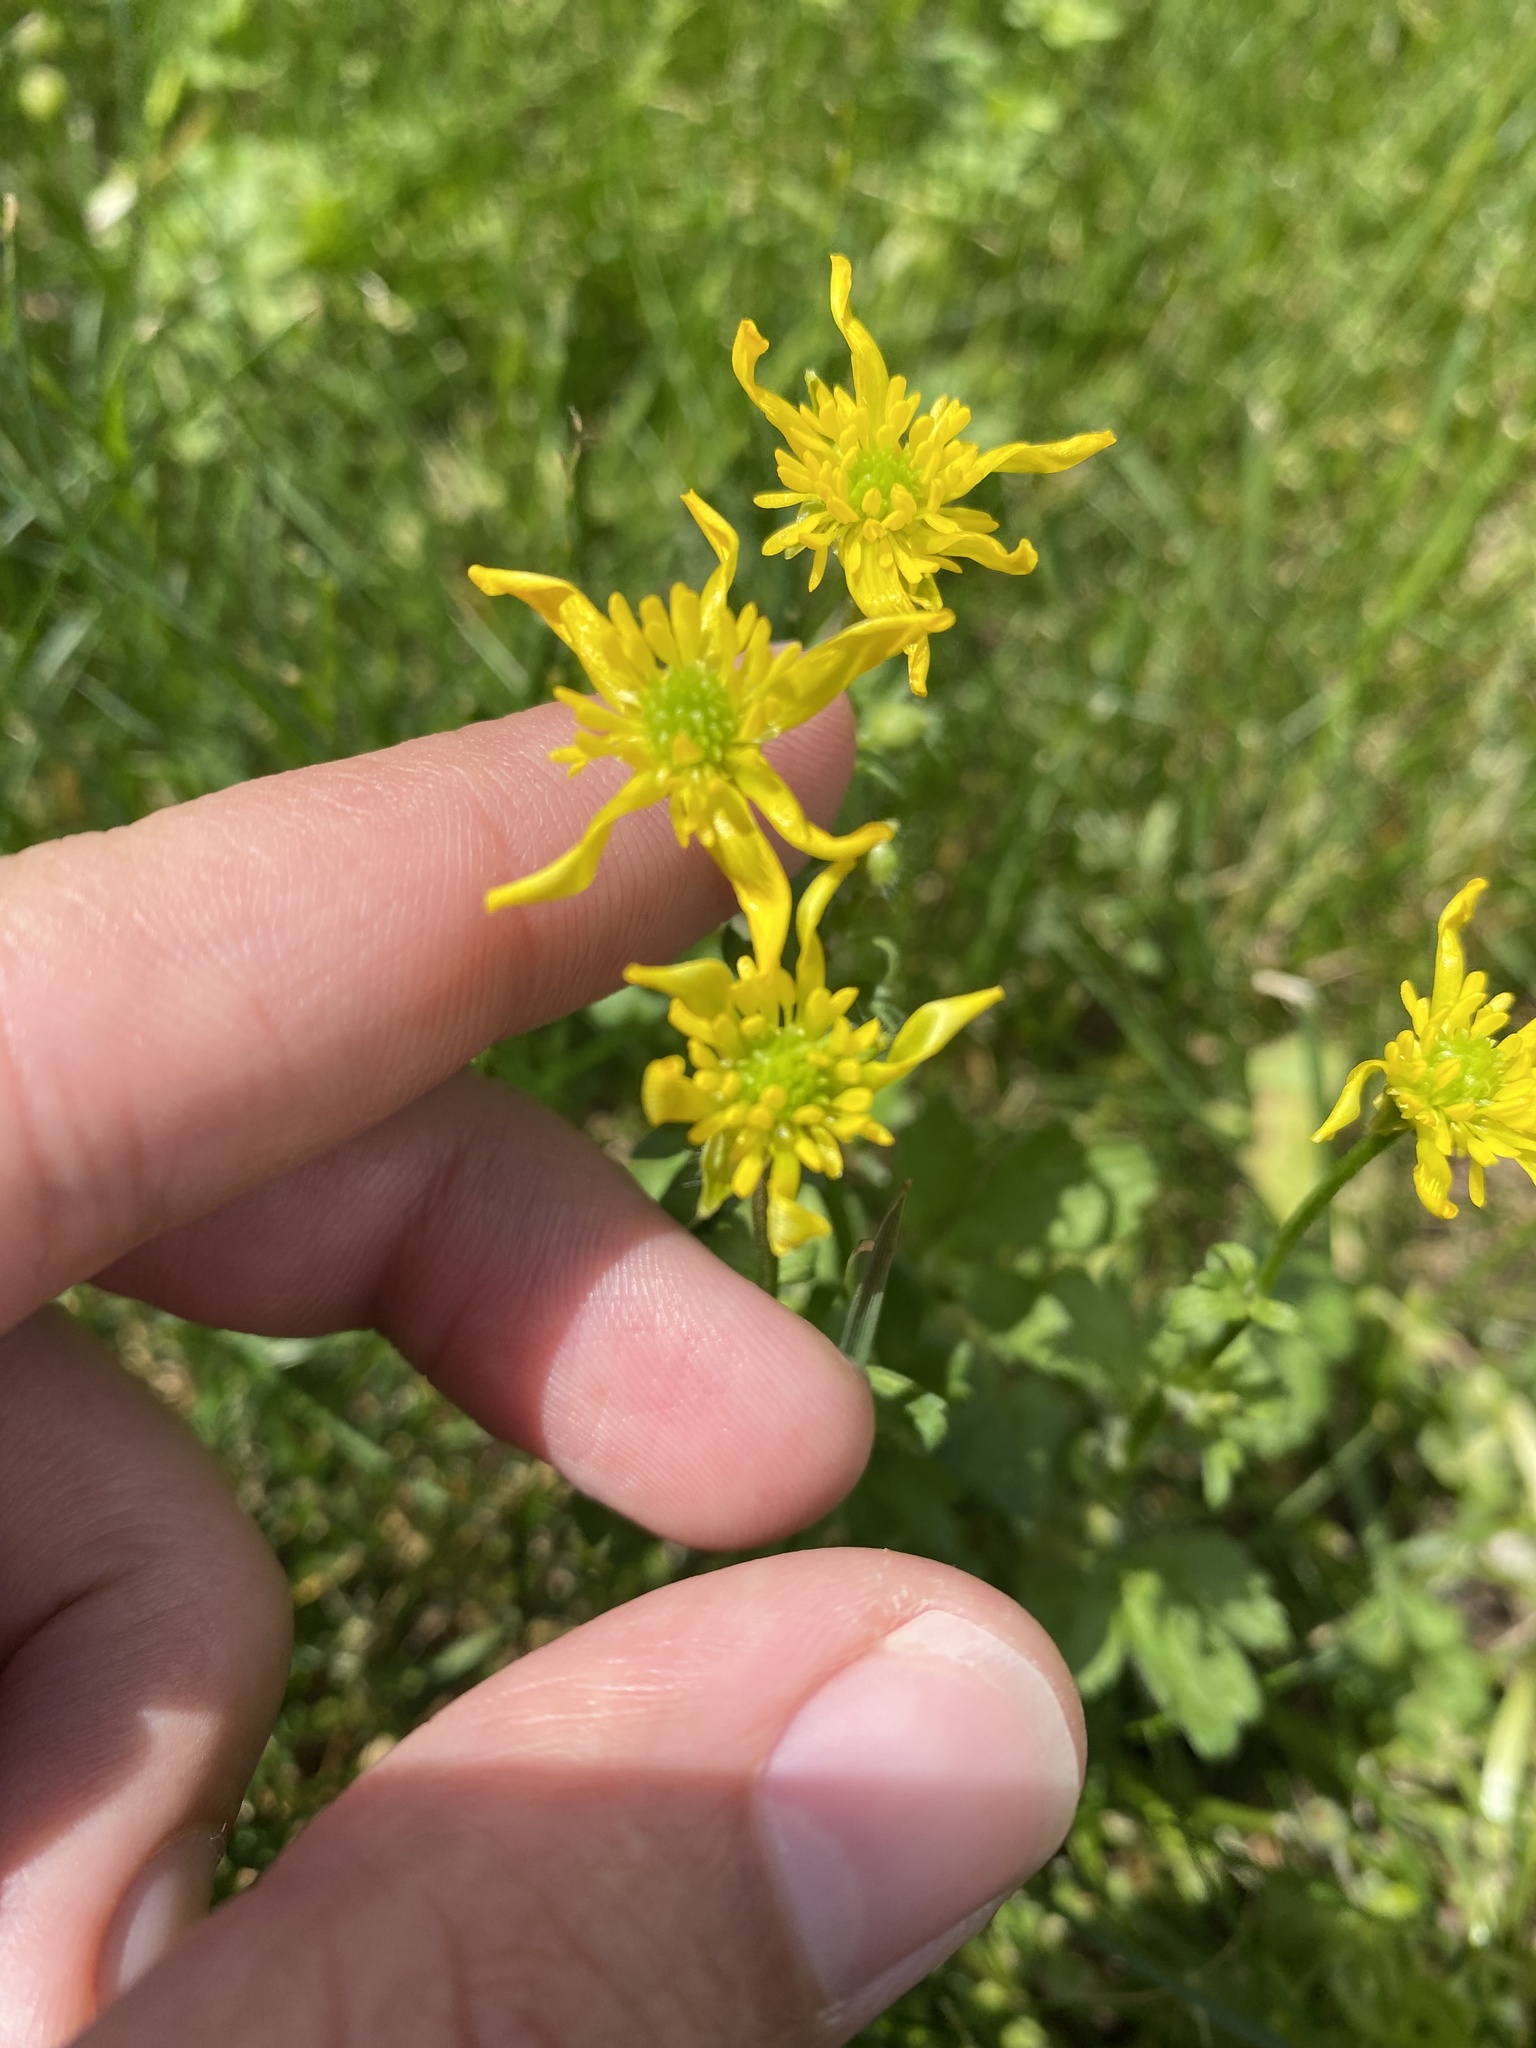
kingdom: Plantae
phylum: Tracheophyta
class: Magnoliopsida
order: Ranunculales
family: Ranunculaceae
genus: Ranunculus
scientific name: Ranunculus
